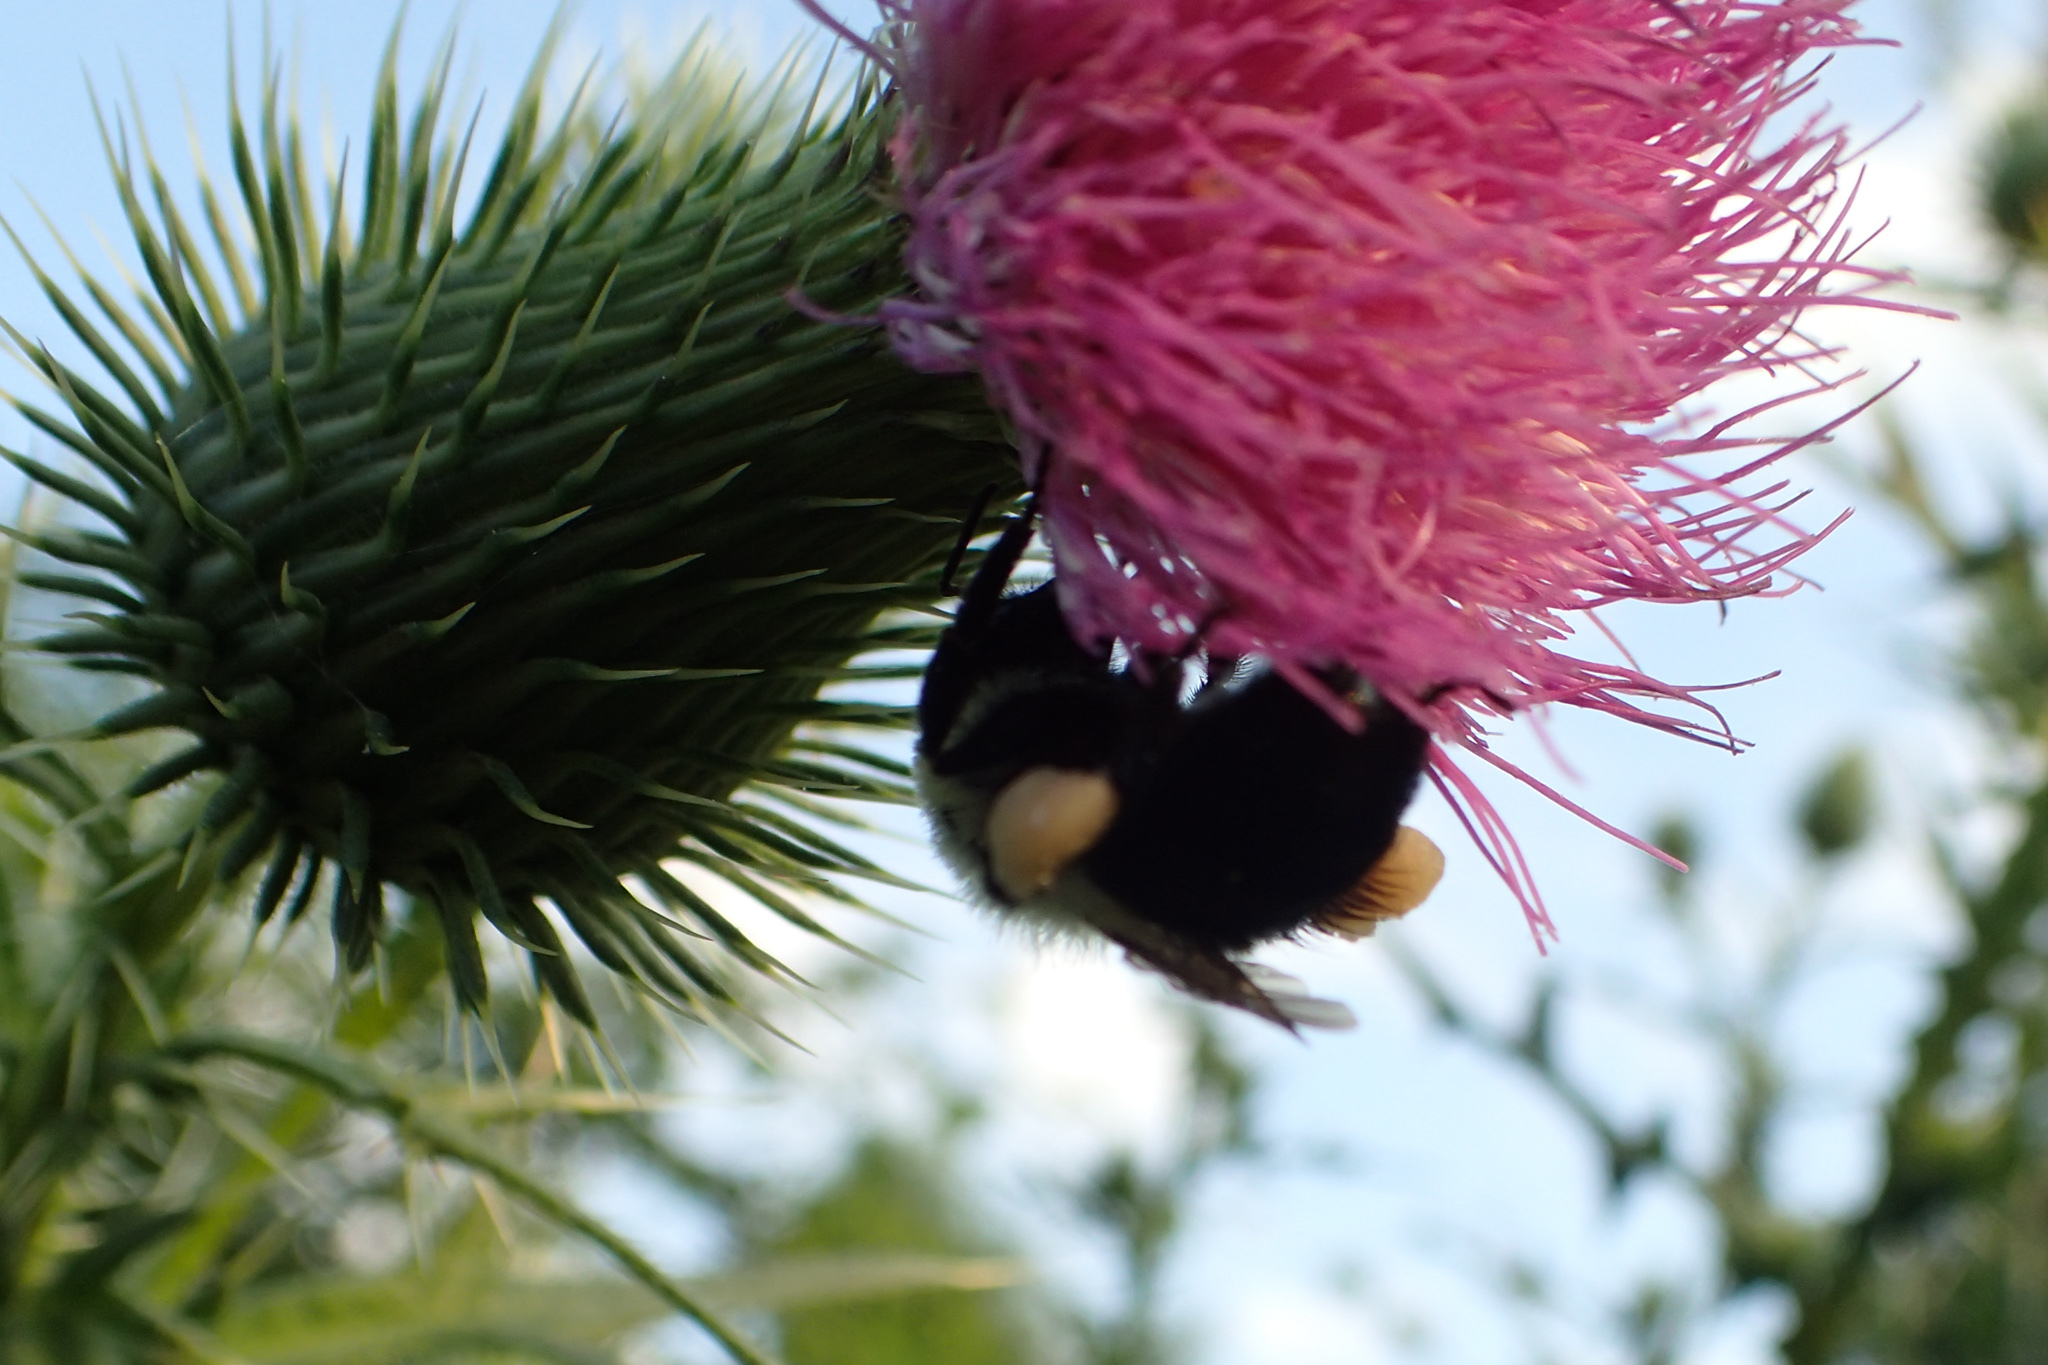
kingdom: Animalia
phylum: Arthropoda
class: Insecta
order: Hymenoptera
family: Apidae
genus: Bombus
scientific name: Bombus impatiens
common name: Common eastern bumble bee
